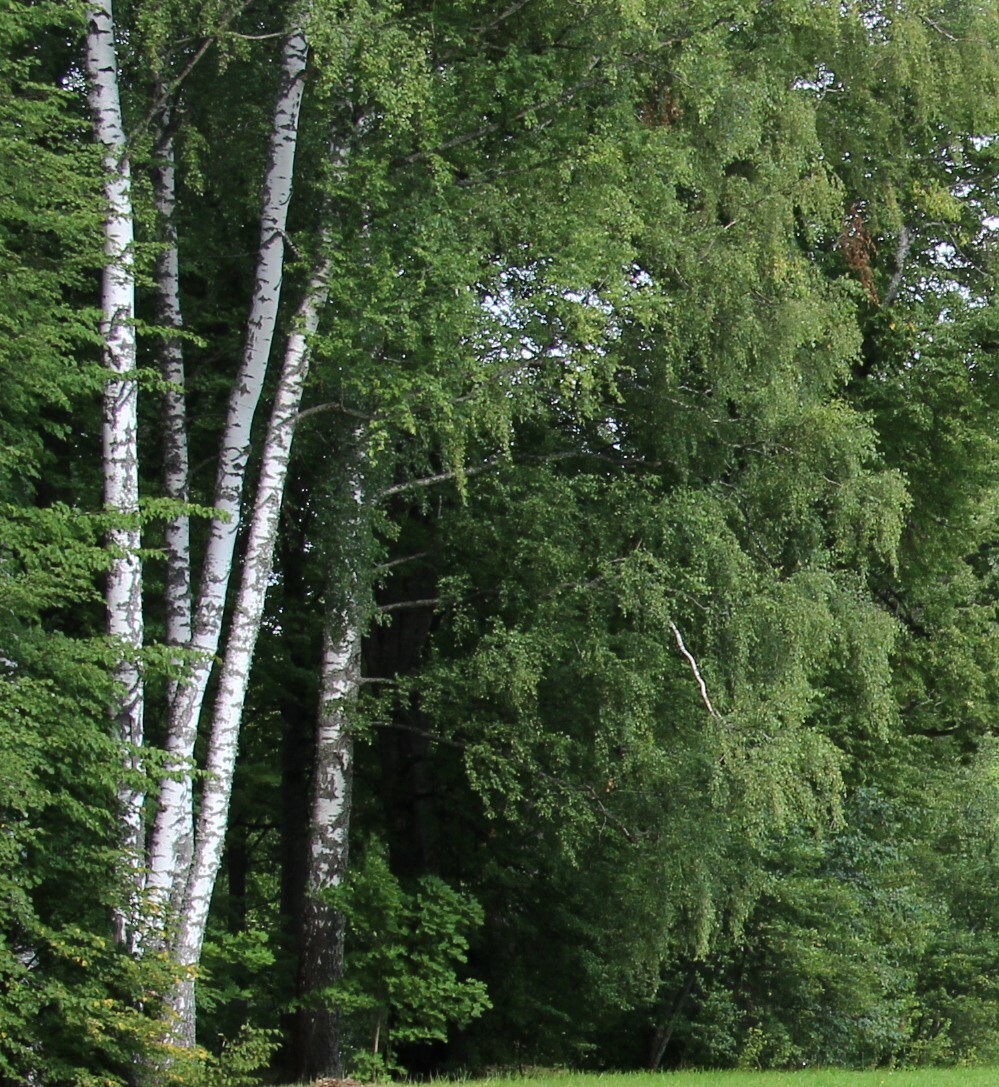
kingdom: Plantae
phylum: Tracheophyta
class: Magnoliopsida
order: Fagales
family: Betulaceae
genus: Betula
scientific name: Betula pendula
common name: Silver birch
